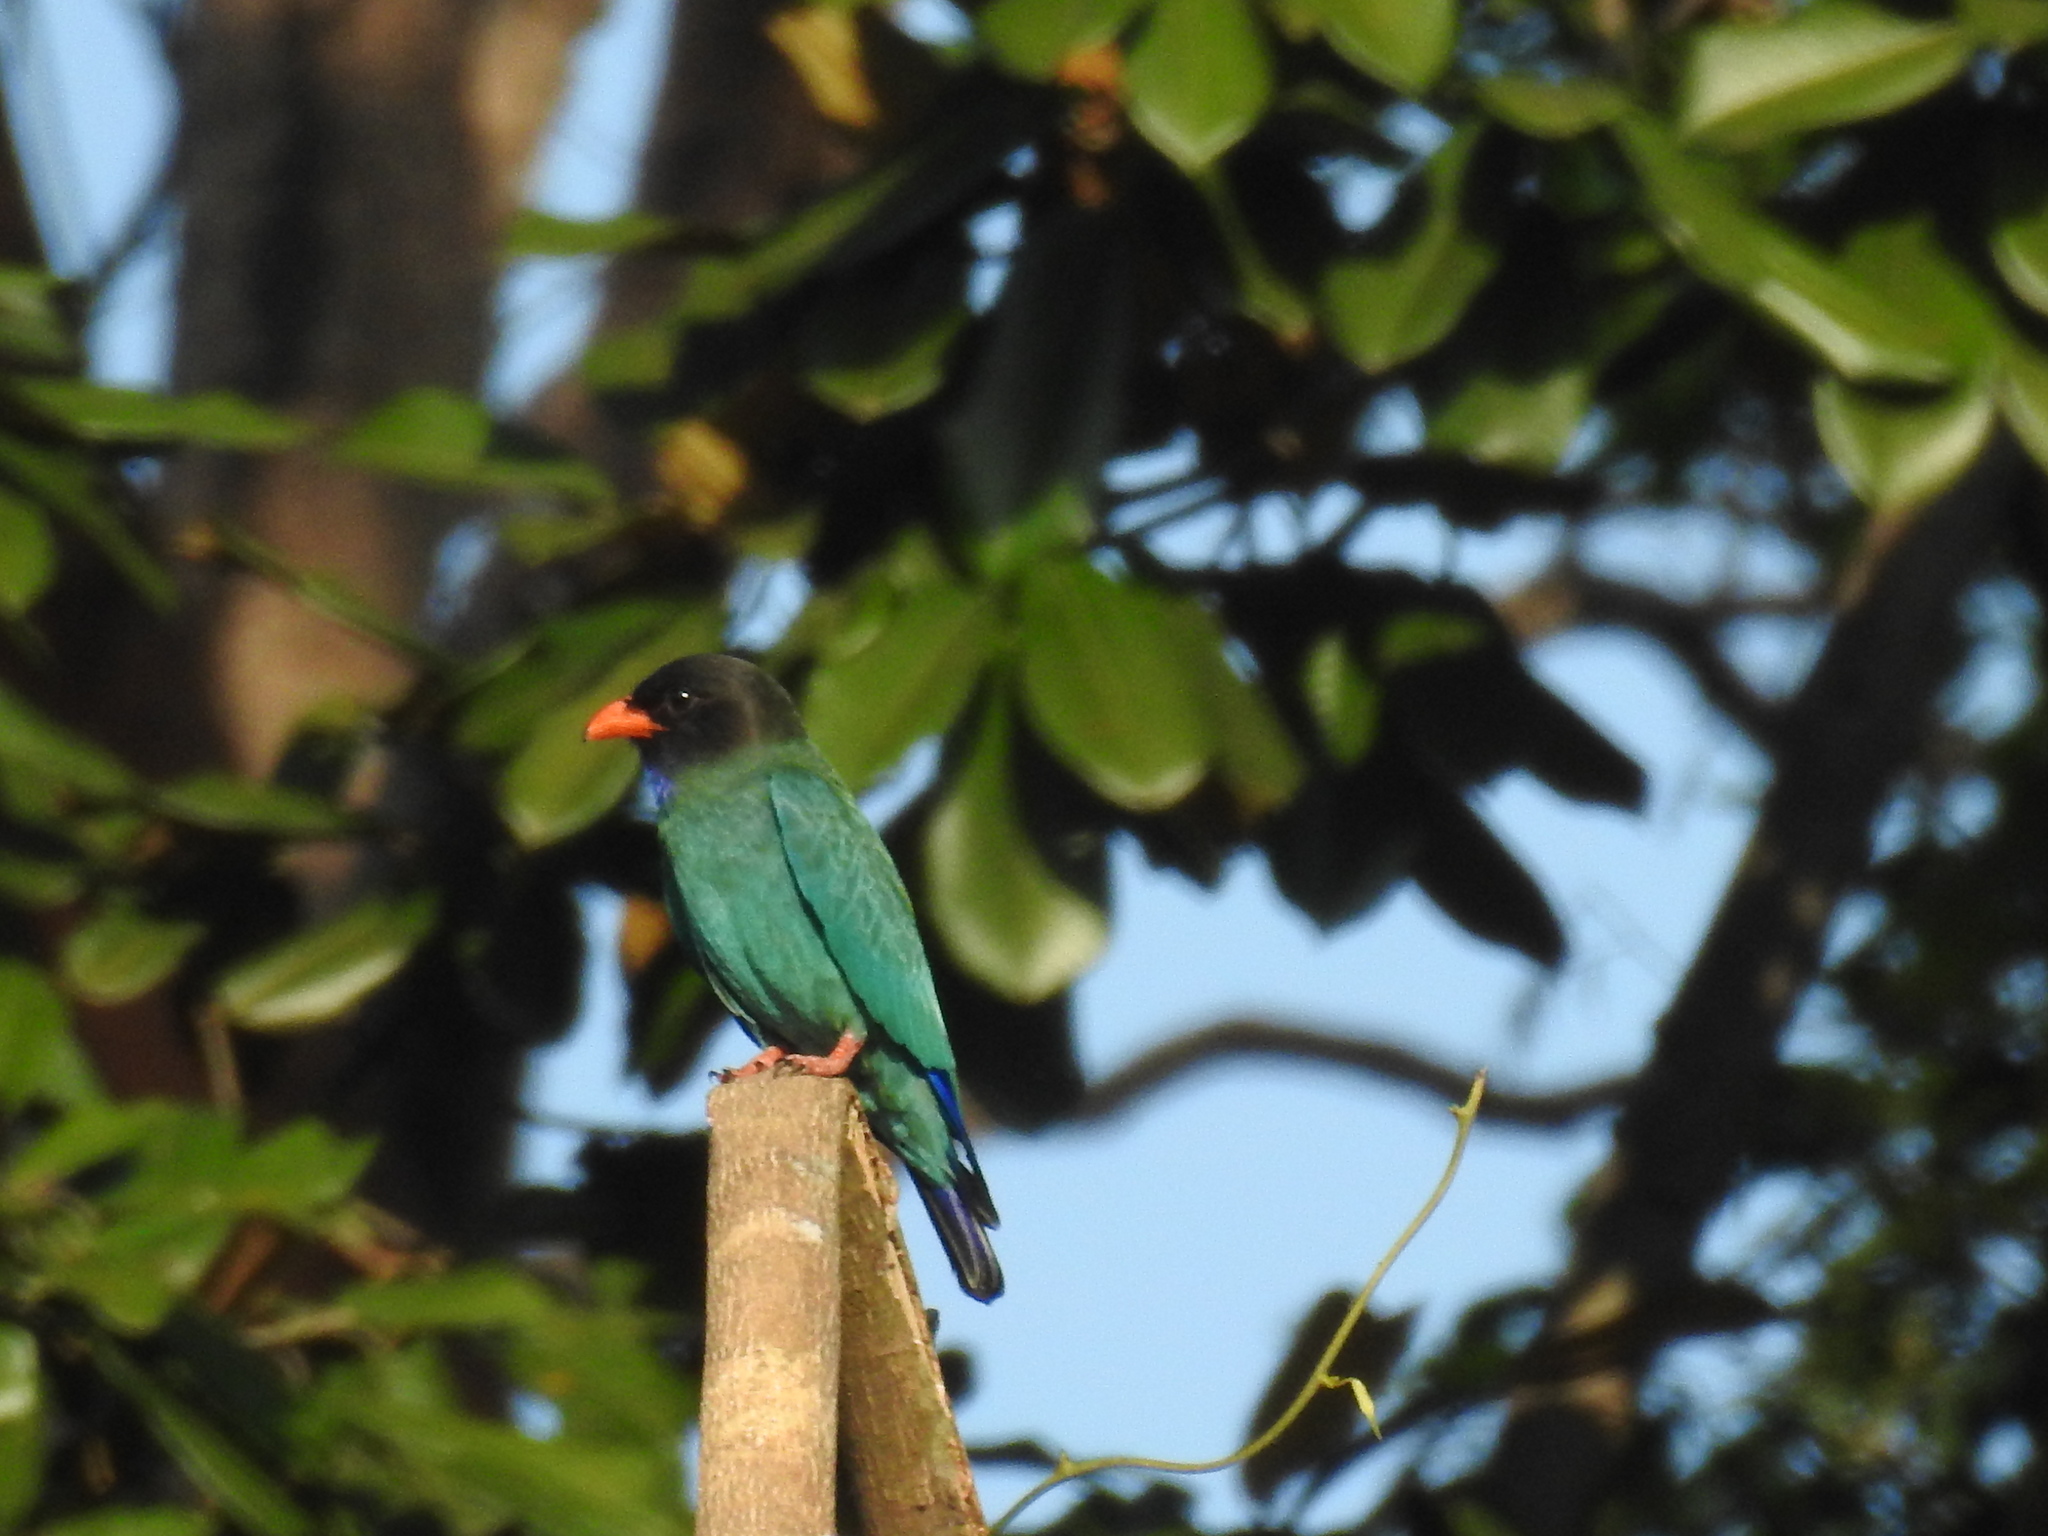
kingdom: Animalia
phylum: Chordata
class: Aves
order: Coraciiformes
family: Coraciidae
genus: Eurystomus
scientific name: Eurystomus orientalis
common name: Oriental dollarbird
